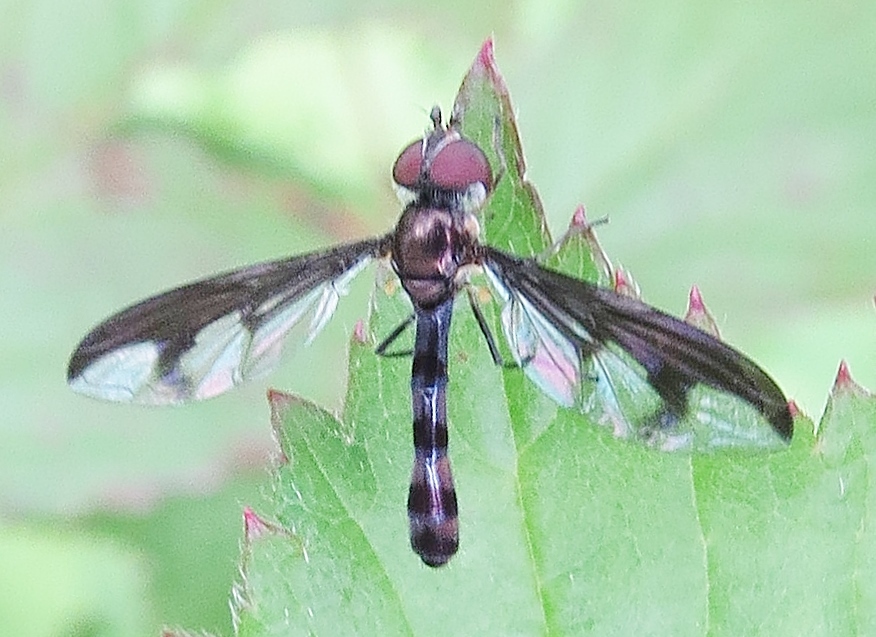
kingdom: Animalia
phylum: Arthropoda
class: Insecta
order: Diptera
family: Syrphidae
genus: Ocyptamus
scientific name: Ocyptamus fuscipennis
